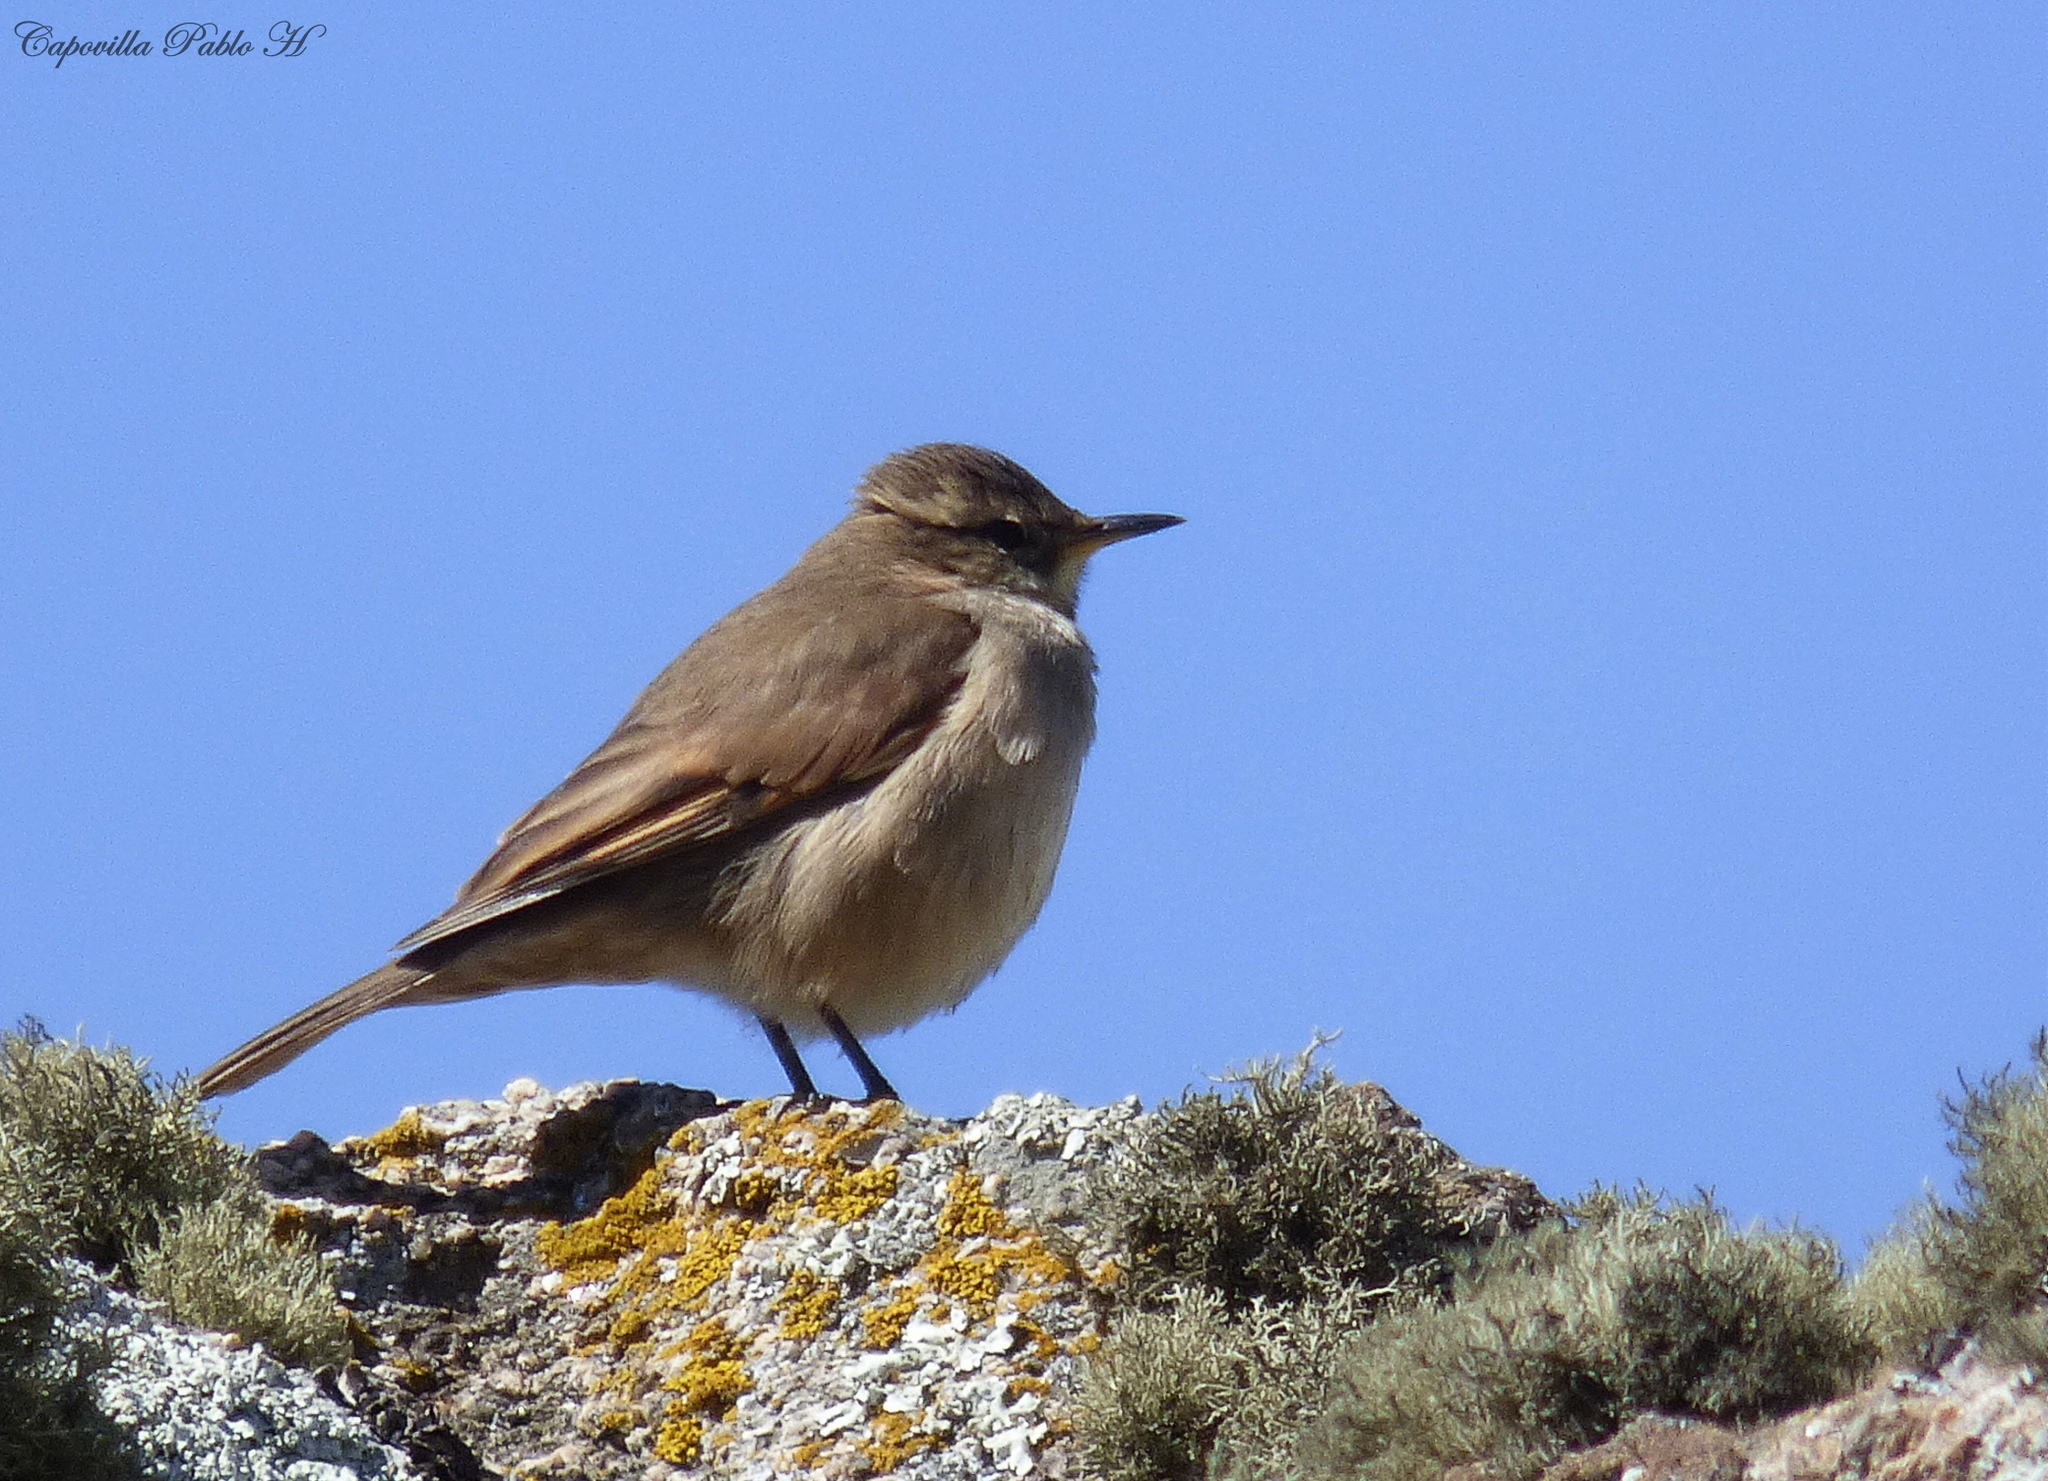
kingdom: Animalia
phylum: Chordata
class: Aves
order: Passeriformes
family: Furnariidae
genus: Cinclodes
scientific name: Cinclodes comechingonus
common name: Cordoba cinclodes
